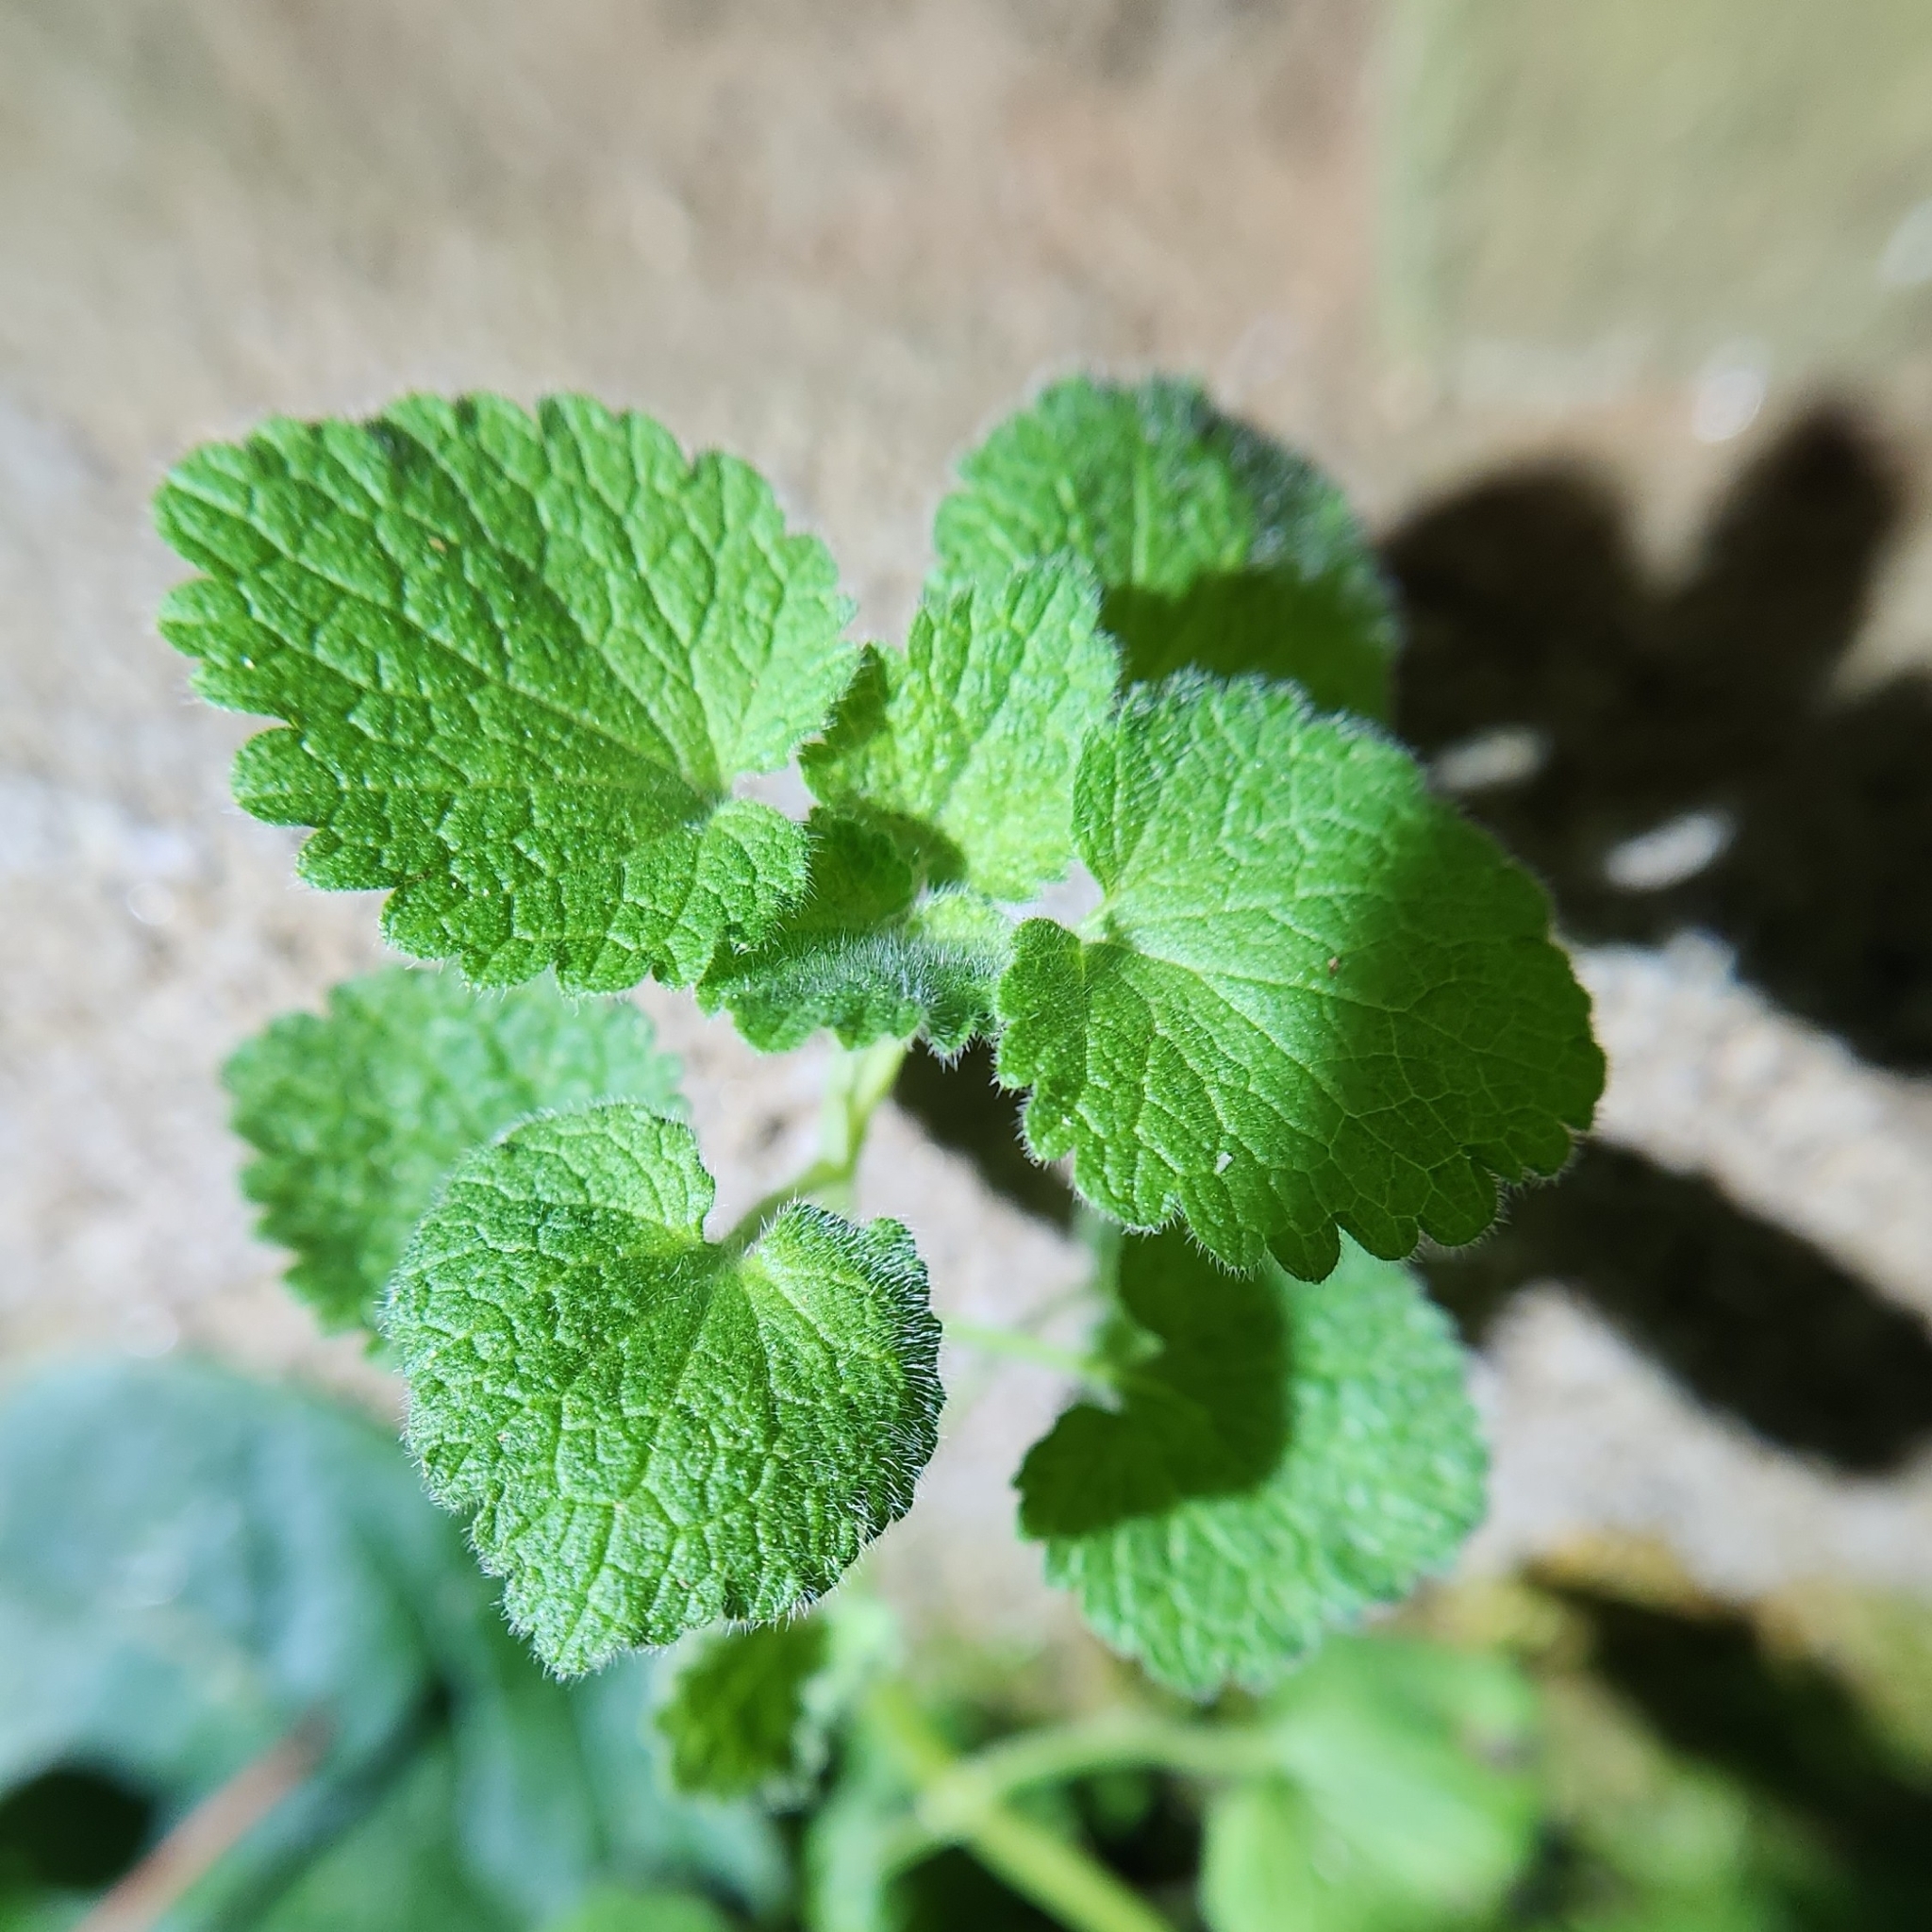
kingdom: Plantae
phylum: Tracheophyta
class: Magnoliopsida
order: Lamiales
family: Lamiaceae
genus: Lamium
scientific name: Lamium purpureum
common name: Red dead-nettle
